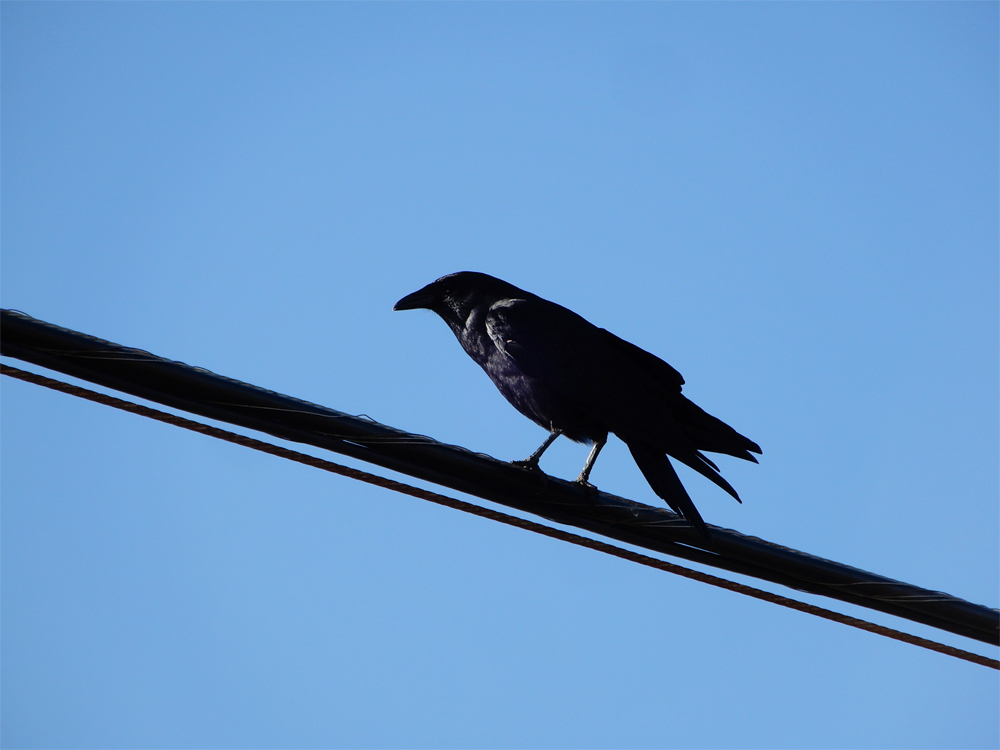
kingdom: Animalia
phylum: Chordata
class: Aves
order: Passeriformes
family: Corvidae
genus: Corvus
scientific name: Corvus ossifragus
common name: Fish crow
